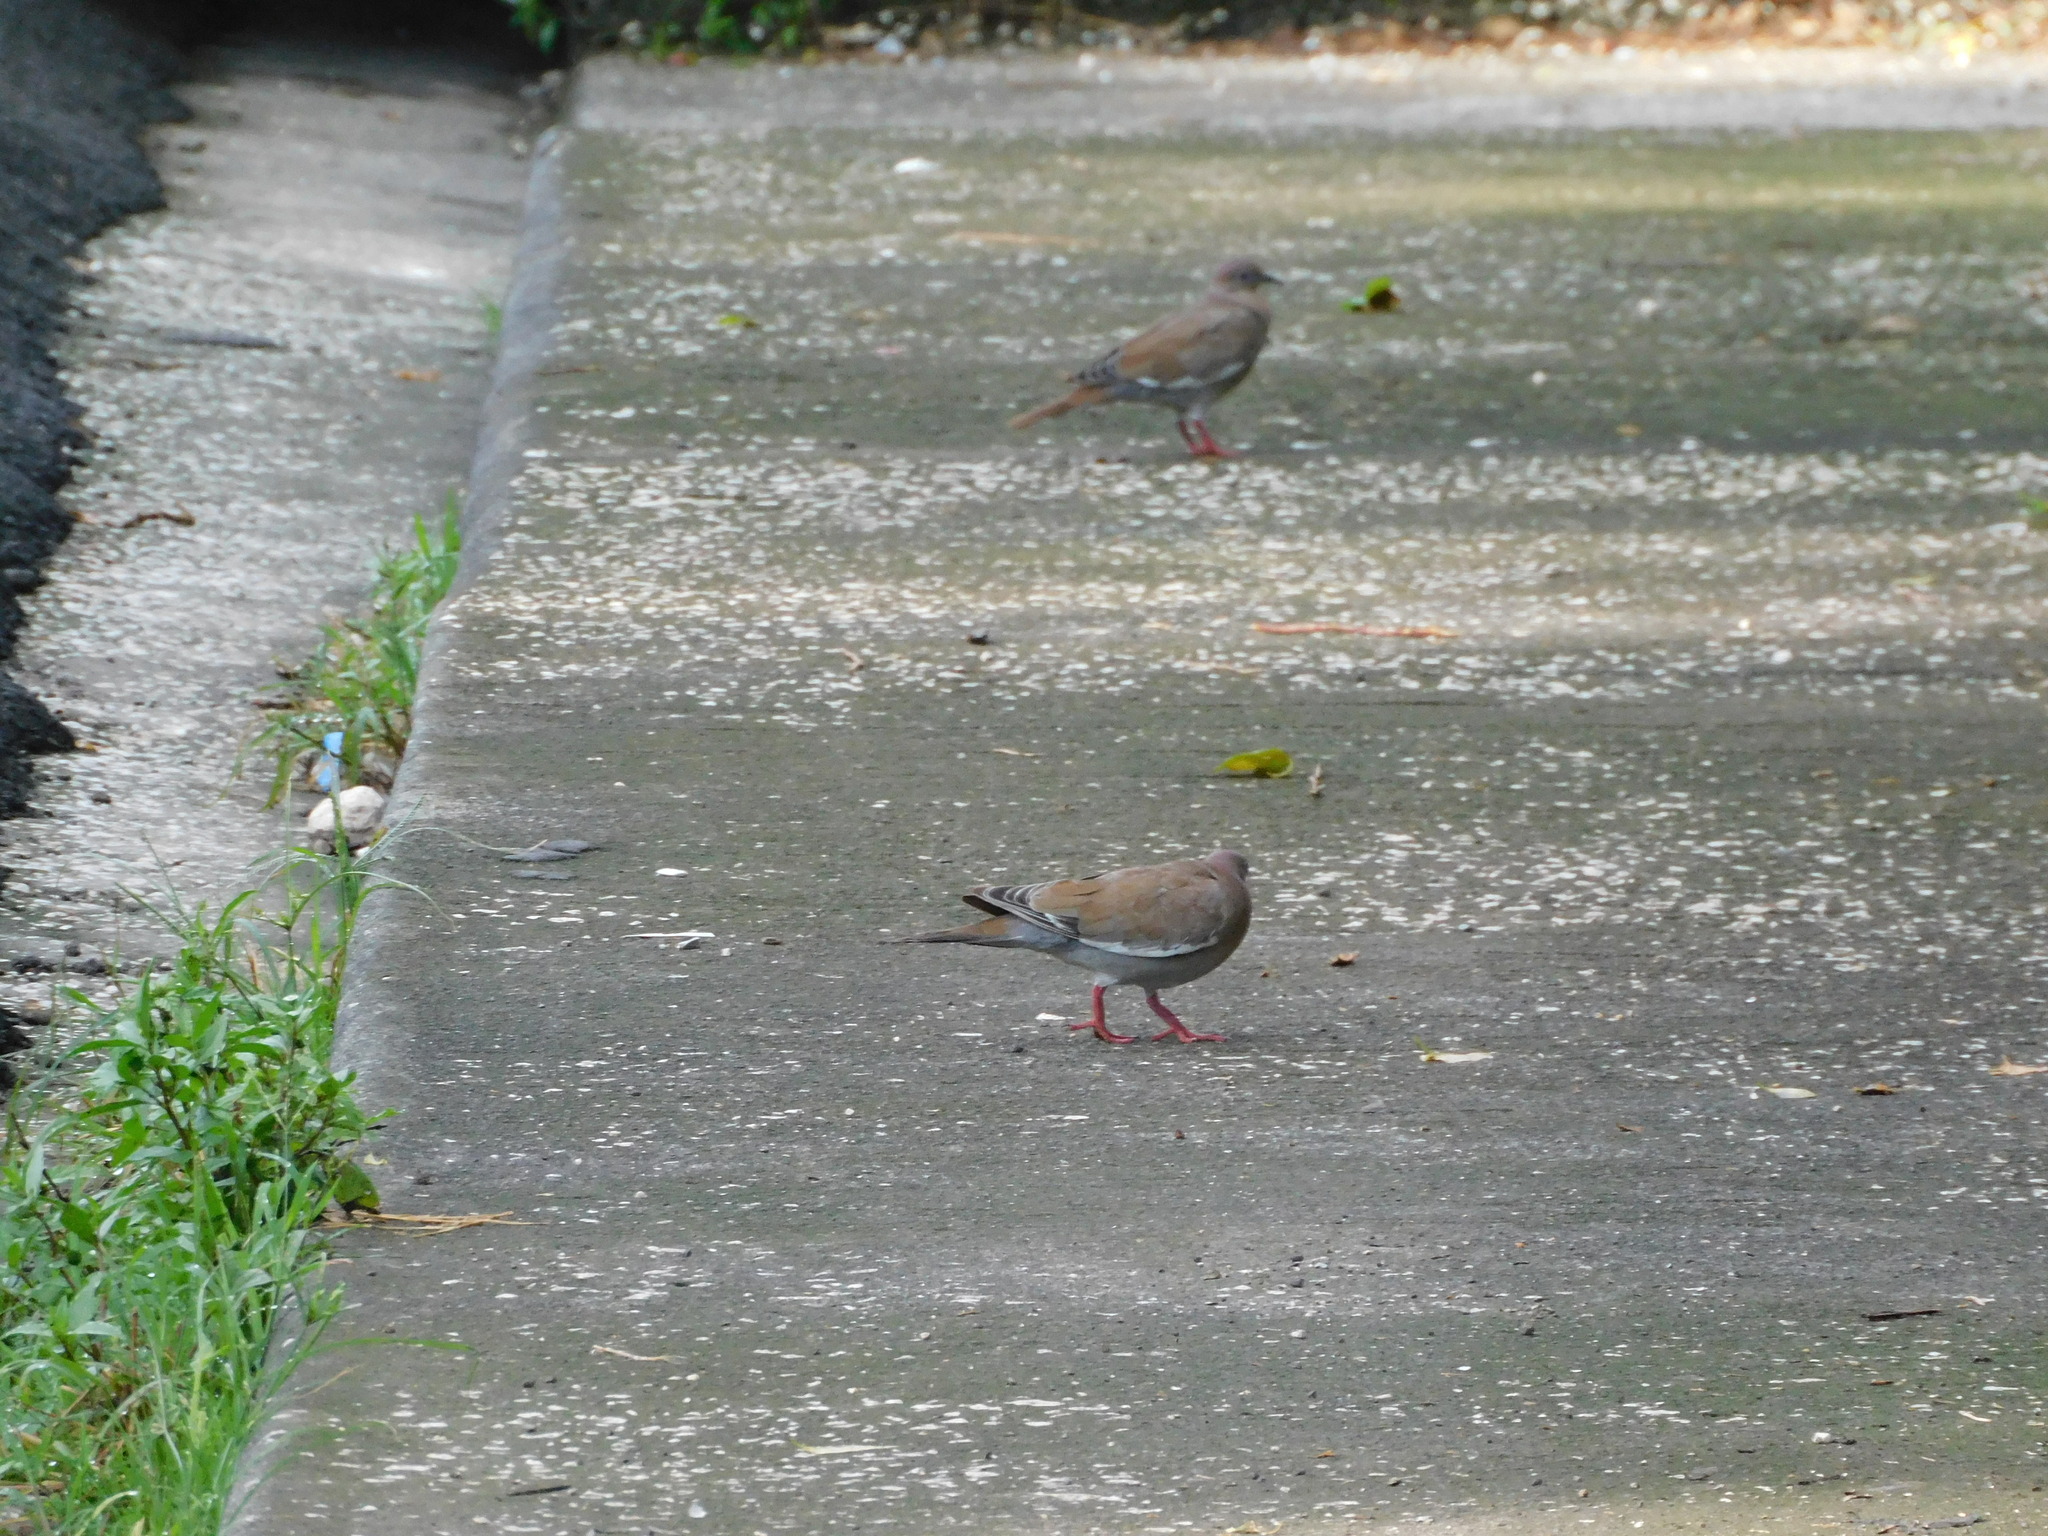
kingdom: Animalia
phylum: Chordata
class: Aves
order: Columbiformes
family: Columbidae
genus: Zenaida
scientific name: Zenaida asiatica
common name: White-winged dove
